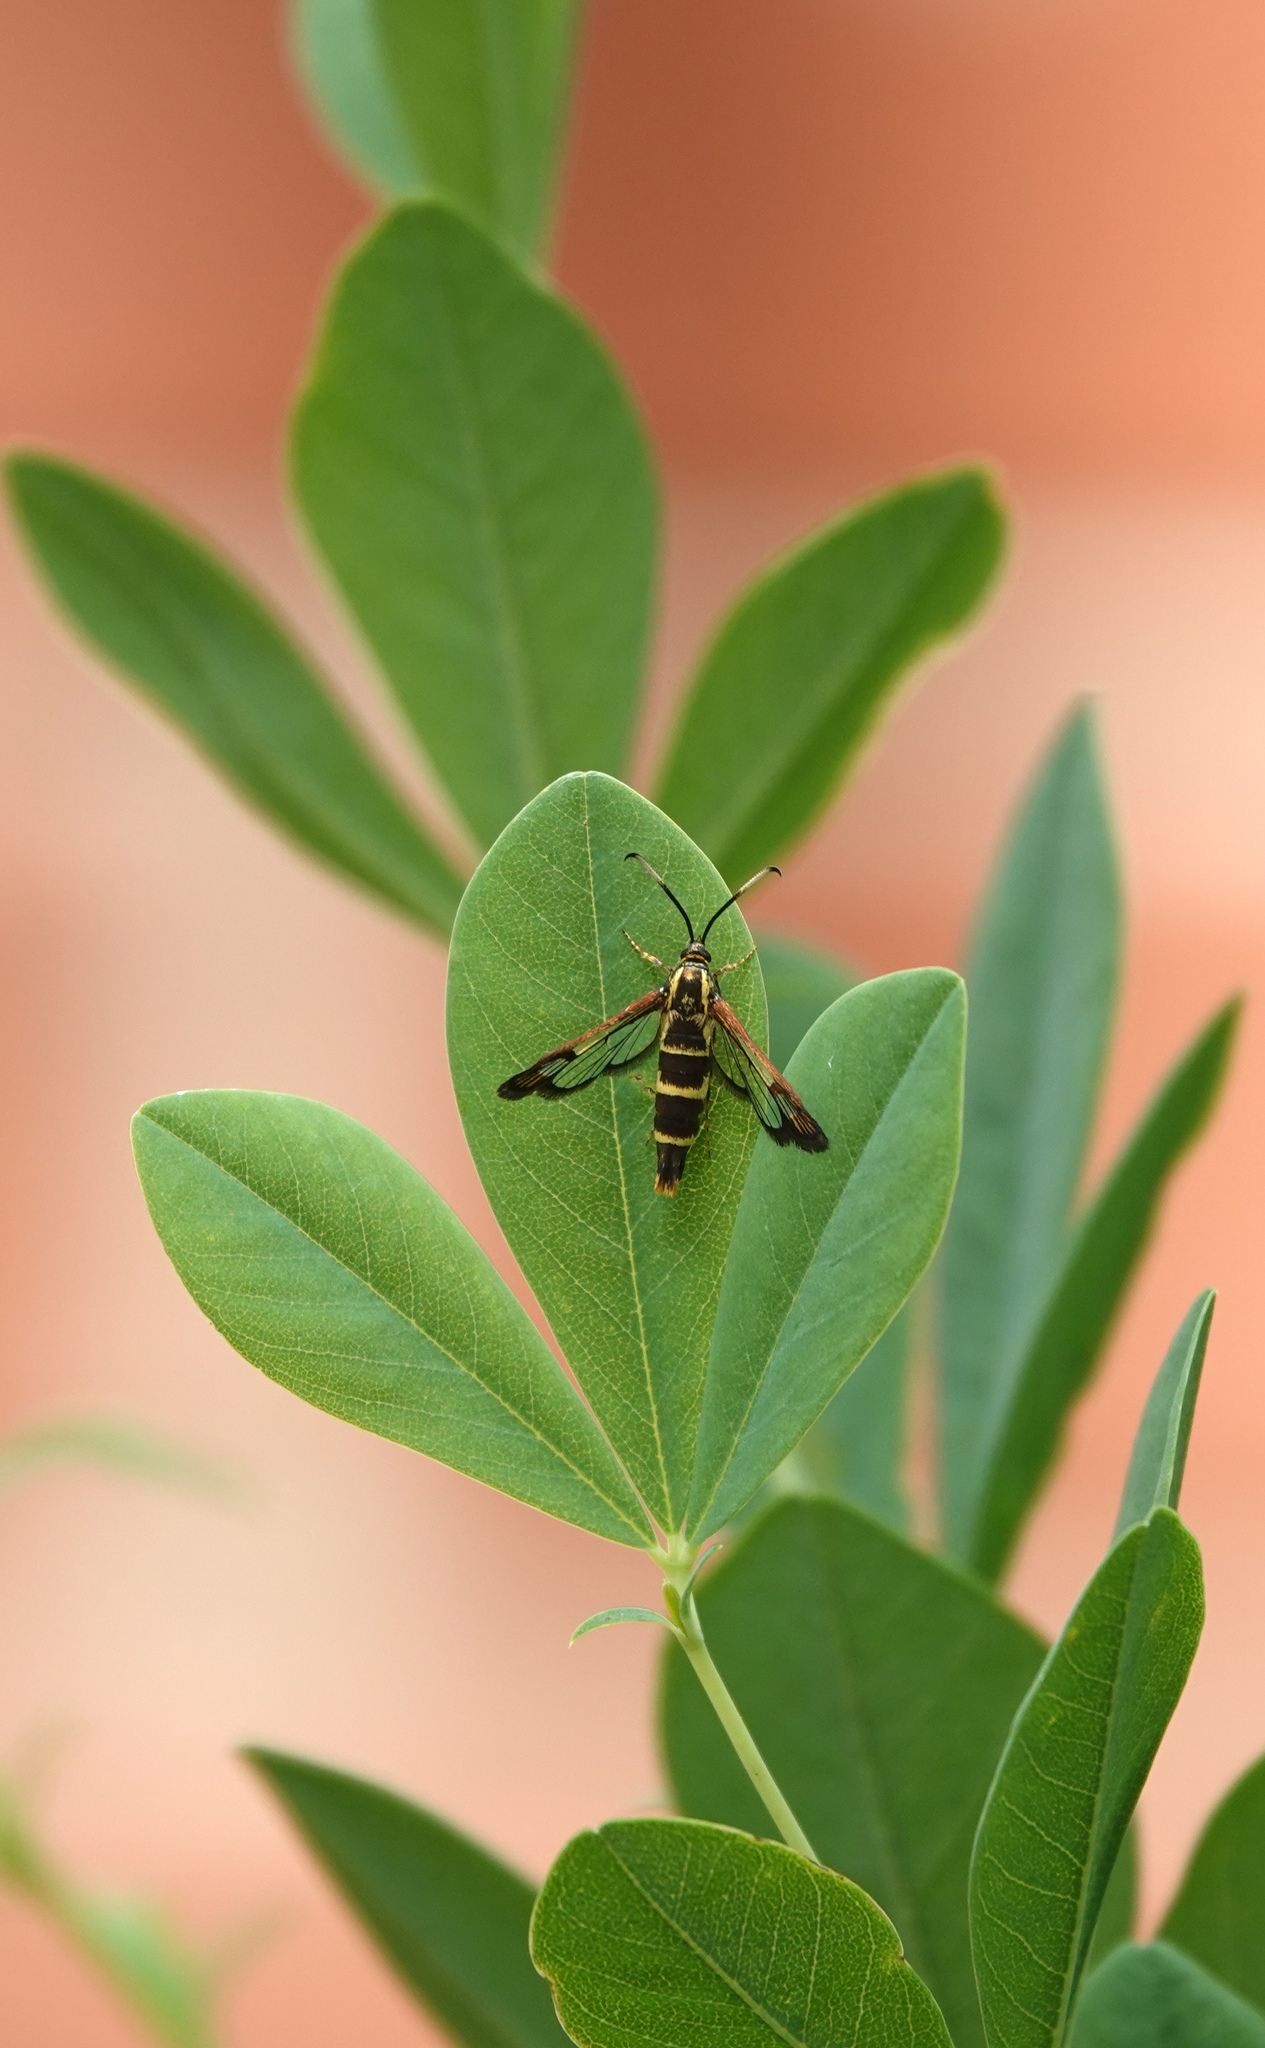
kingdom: Animalia
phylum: Arthropoda
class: Insecta
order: Lepidoptera
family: Sesiidae
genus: Carmenta
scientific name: Carmenta bassiformis
